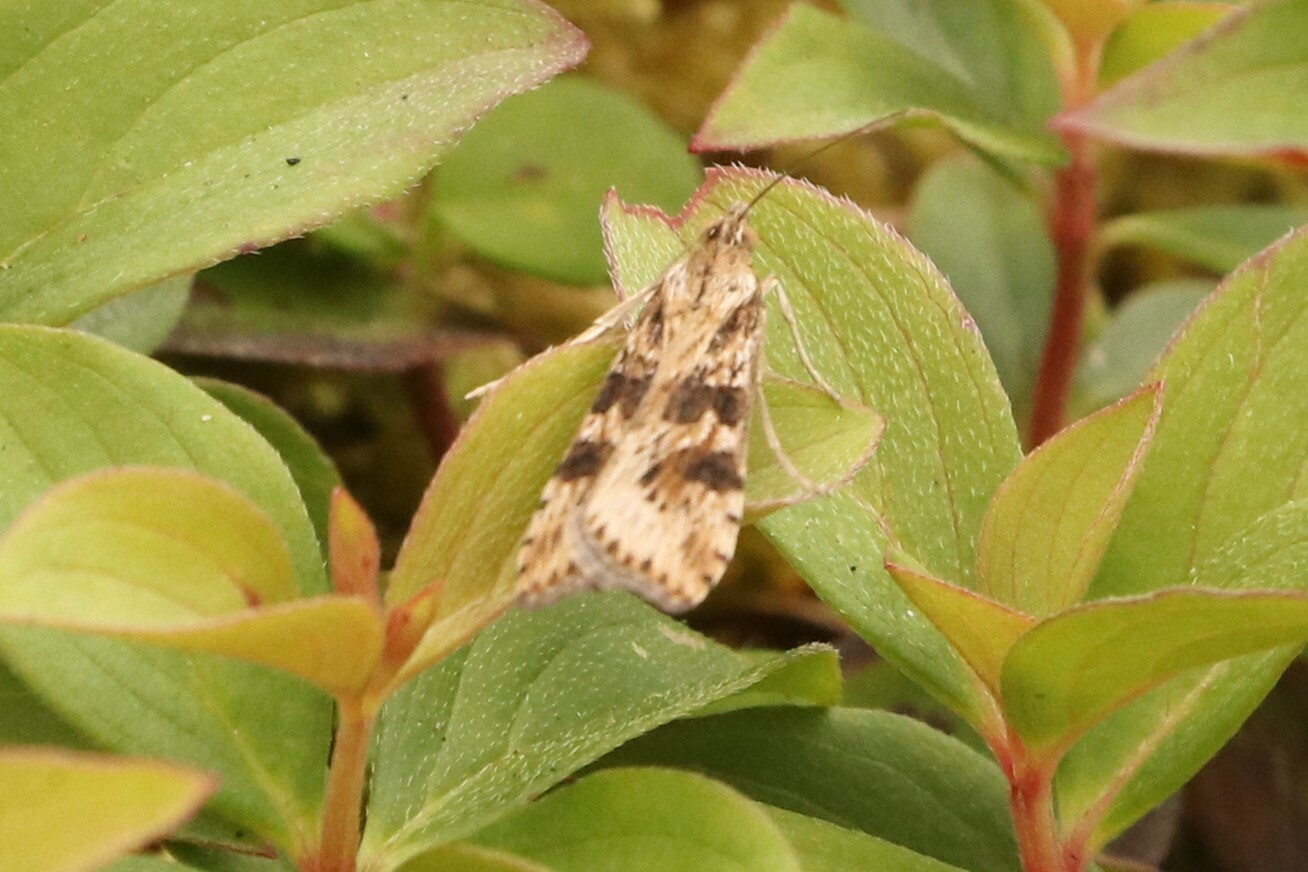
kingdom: Animalia
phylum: Arthropoda
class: Insecta
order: Lepidoptera
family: Crambidae
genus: Nomophila
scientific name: Nomophila nearctica
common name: American rush veneer
